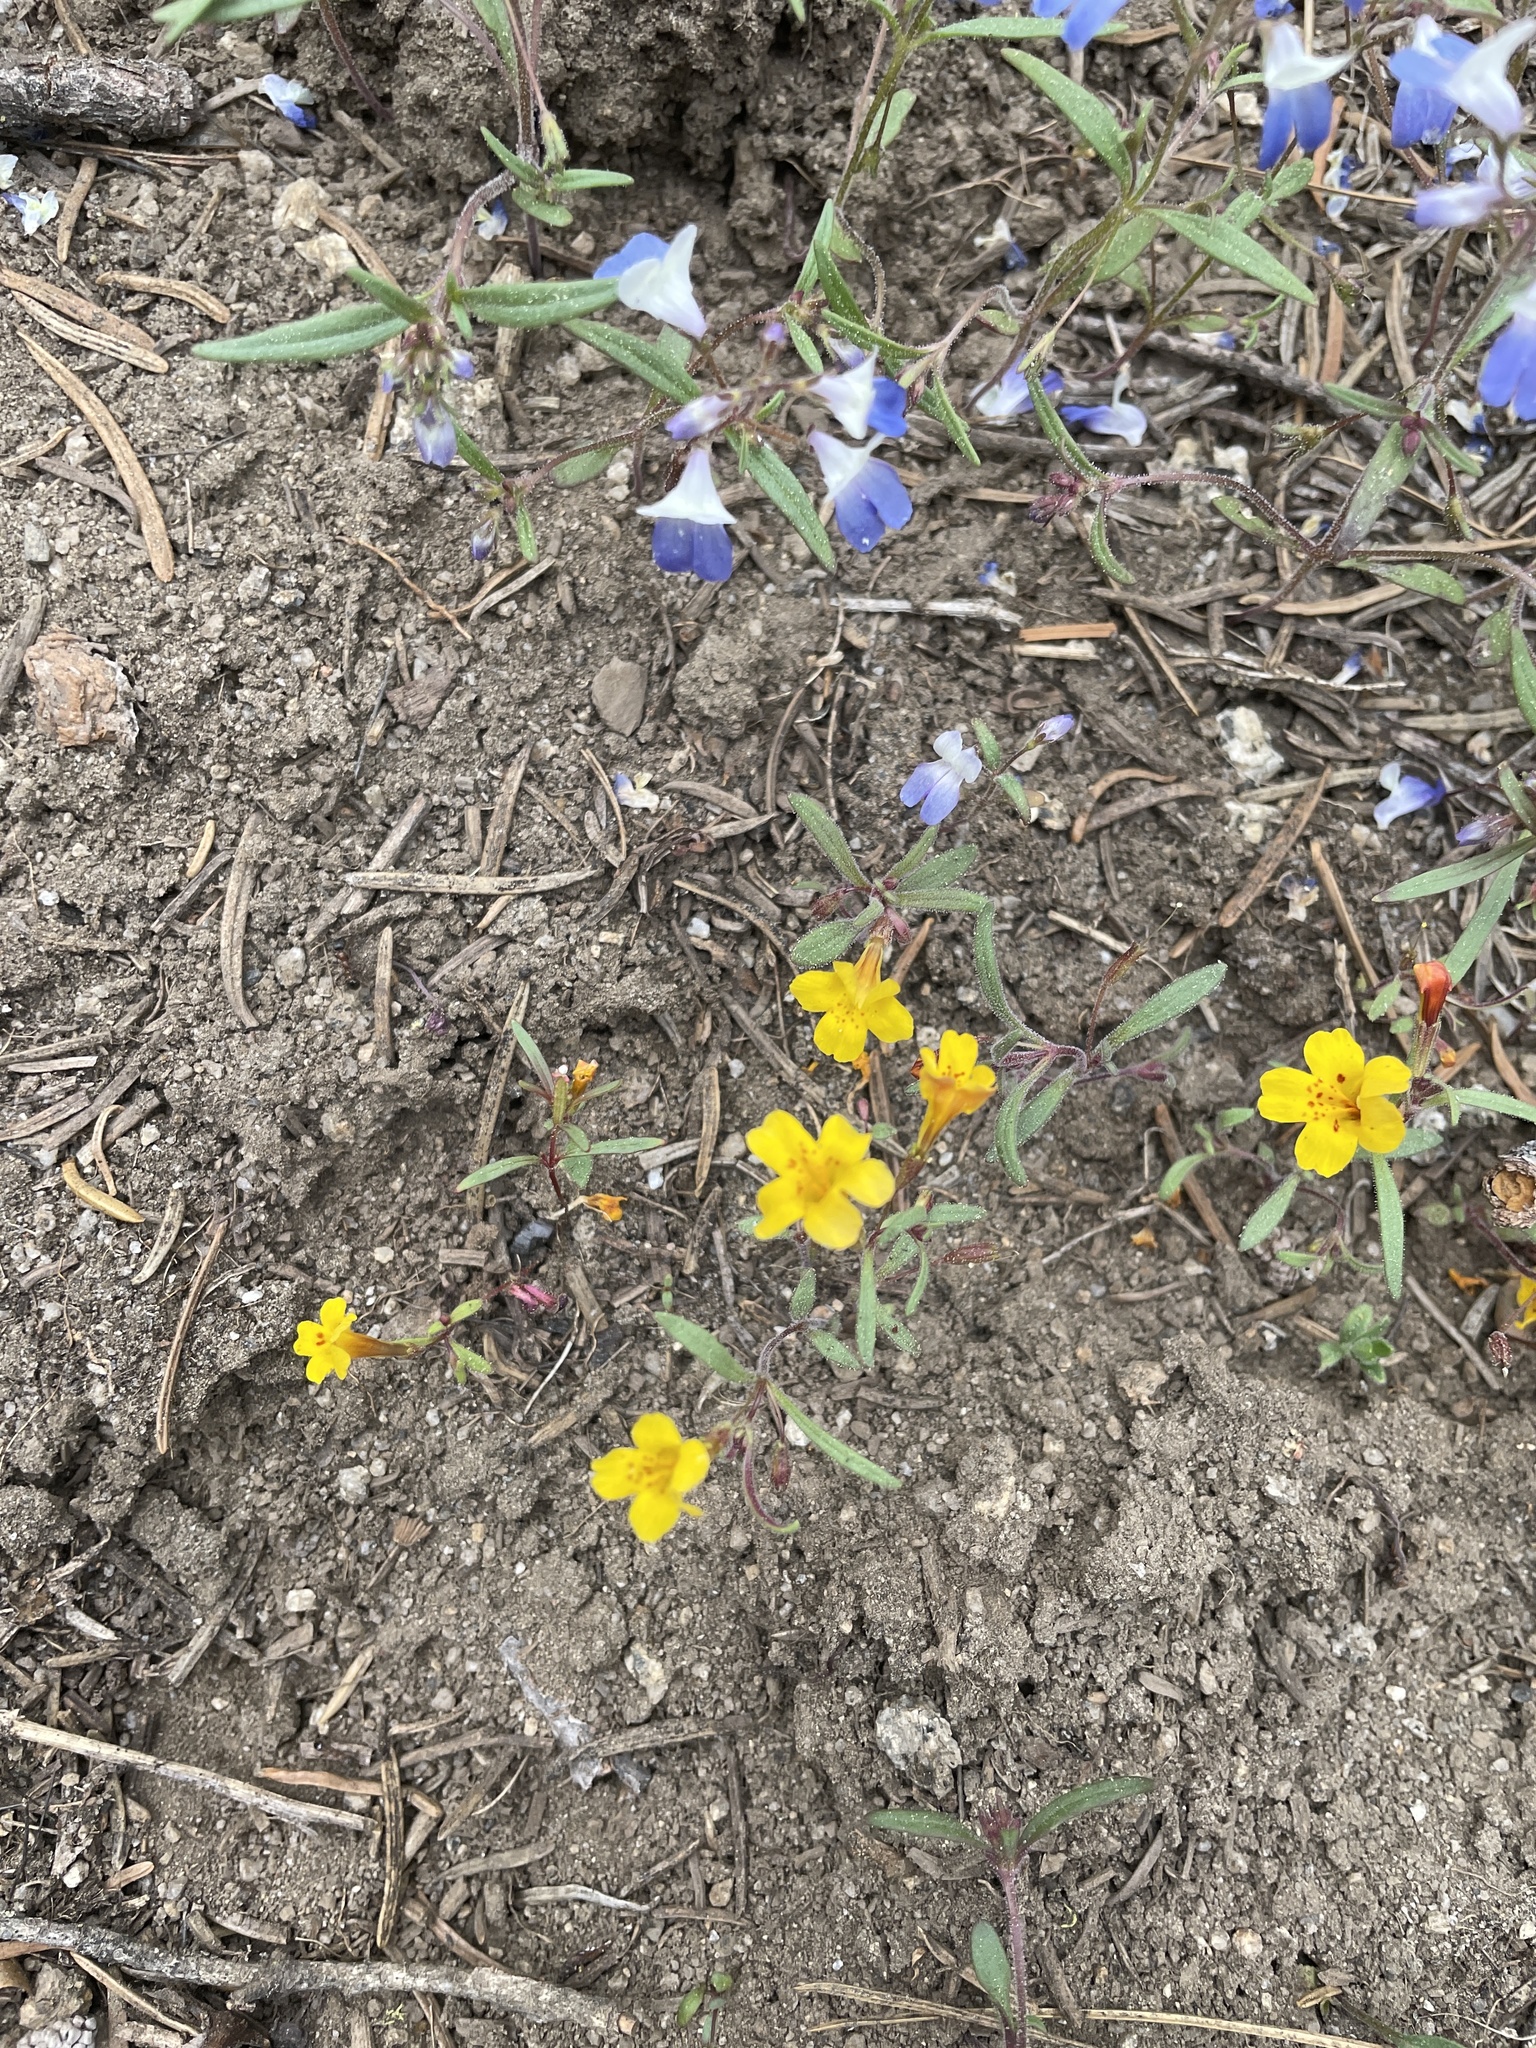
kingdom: Plantae
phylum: Tracheophyta
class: Magnoliopsida
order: Lamiales
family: Phrymaceae
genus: Erythranthe
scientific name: Erythranthe montioides
